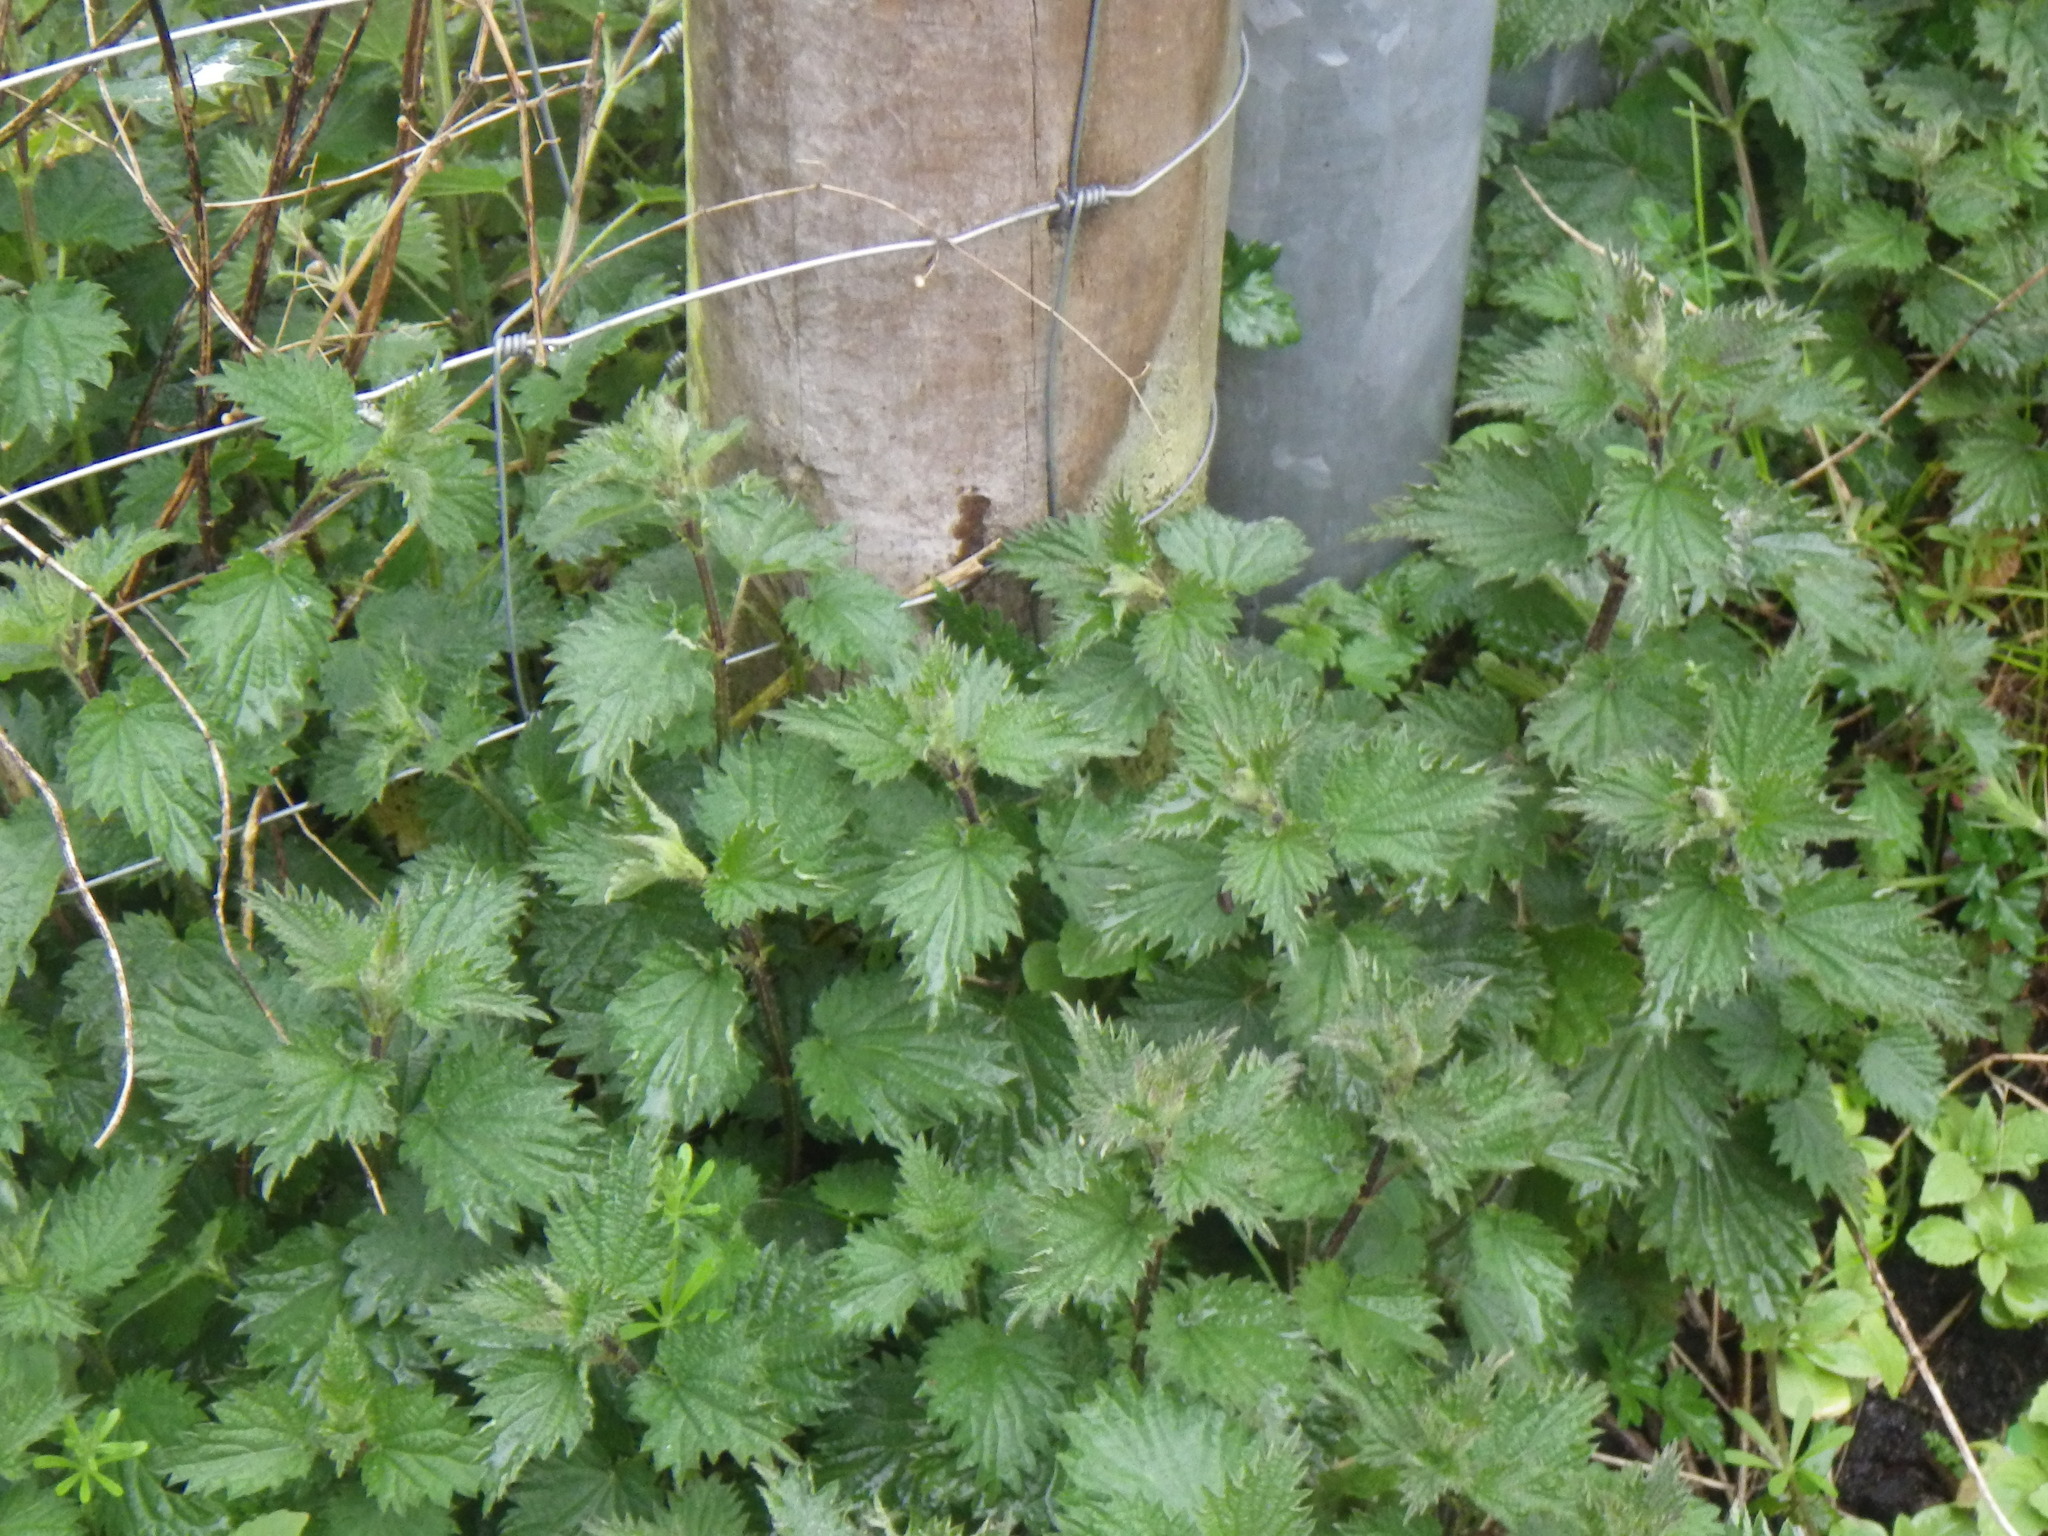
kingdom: Plantae
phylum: Tracheophyta
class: Magnoliopsida
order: Rosales
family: Urticaceae
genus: Urtica
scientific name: Urtica dioica
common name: Common nettle
